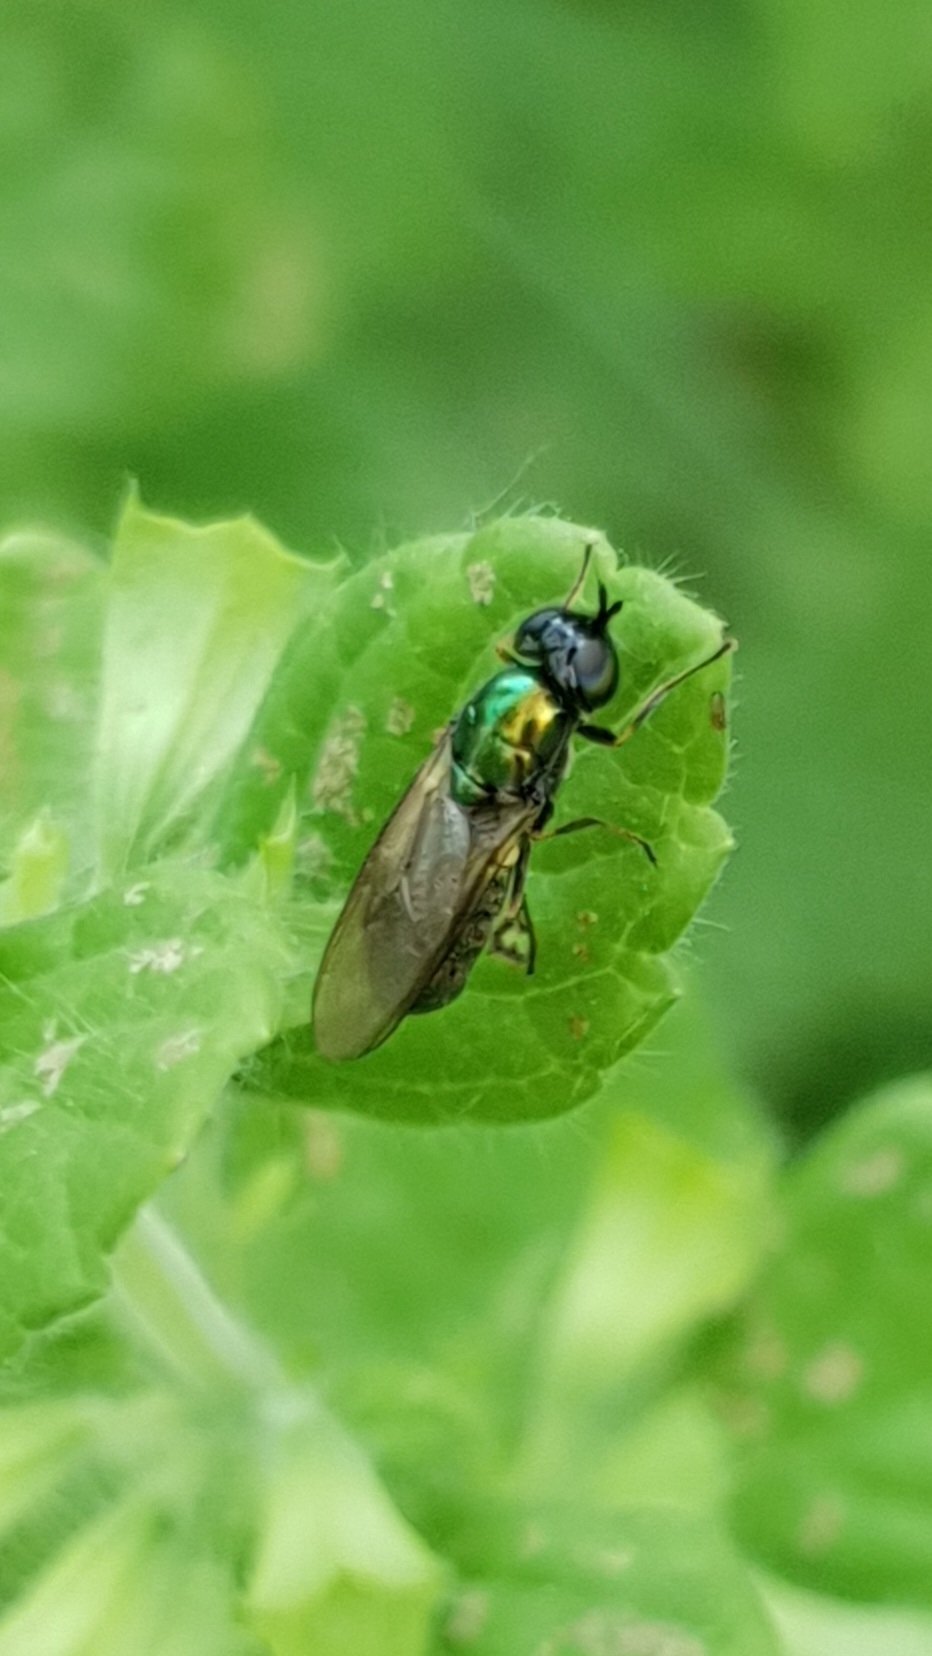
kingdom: Animalia
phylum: Arthropoda
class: Insecta
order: Diptera
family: Stratiomyidae
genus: Chloromyia
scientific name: Chloromyia formosa
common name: Soldier fly
